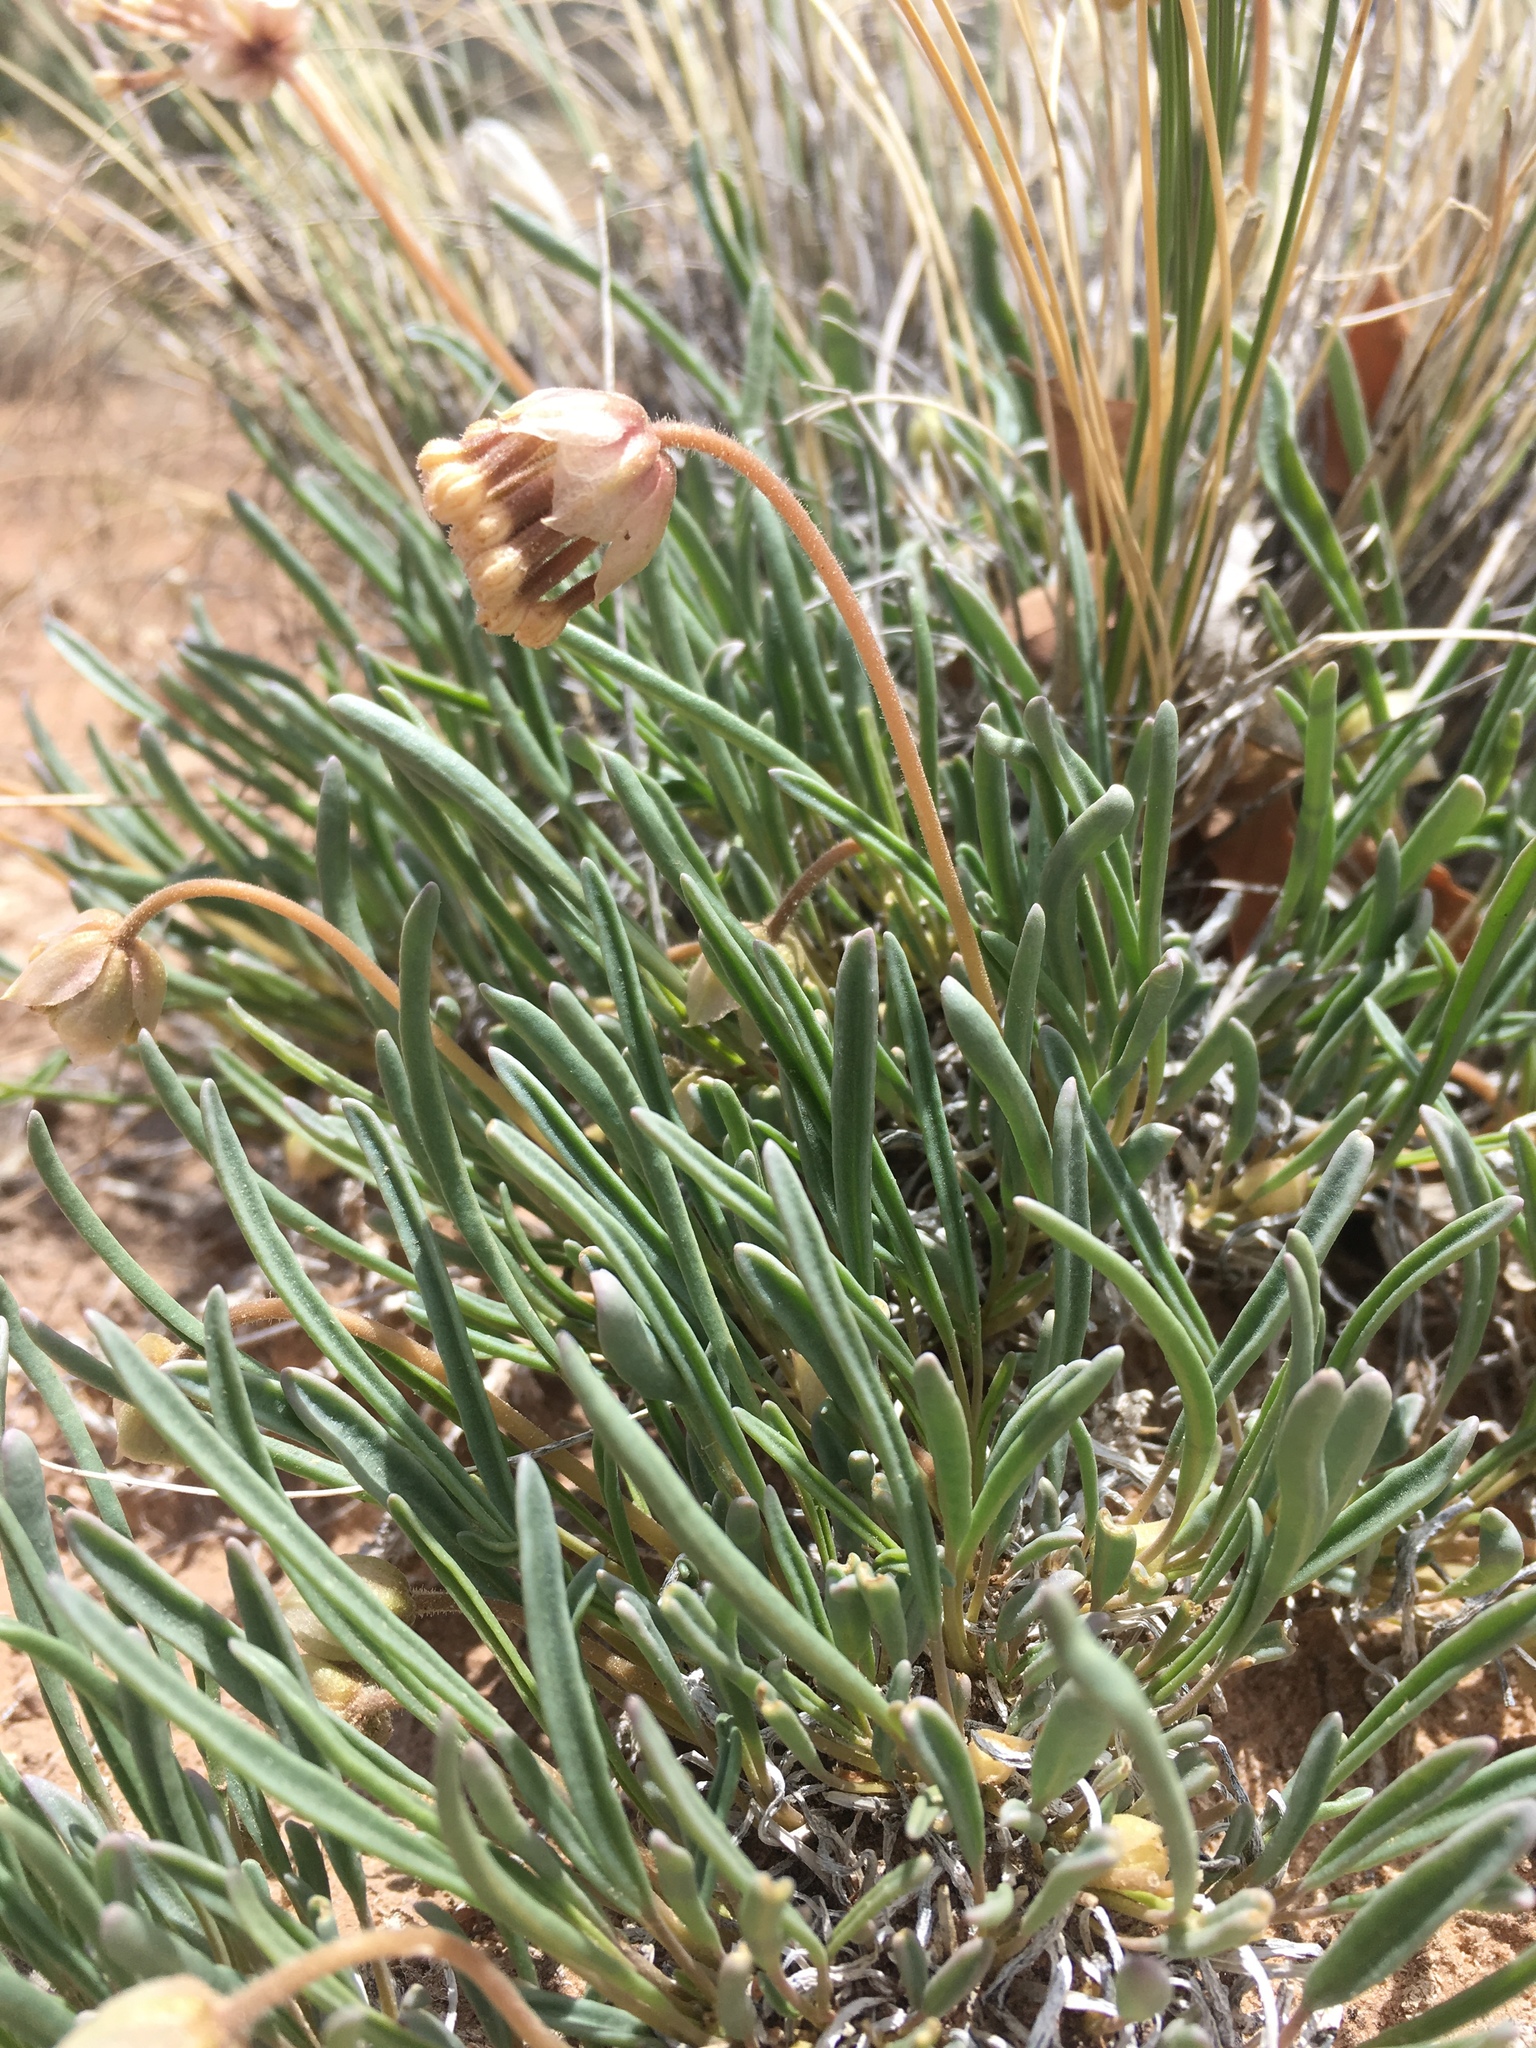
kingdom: Plantae
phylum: Tracheophyta
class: Magnoliopsida
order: Caryophyllales
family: Nyctaginaceae
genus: Abronia
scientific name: Abronia bigelovii
